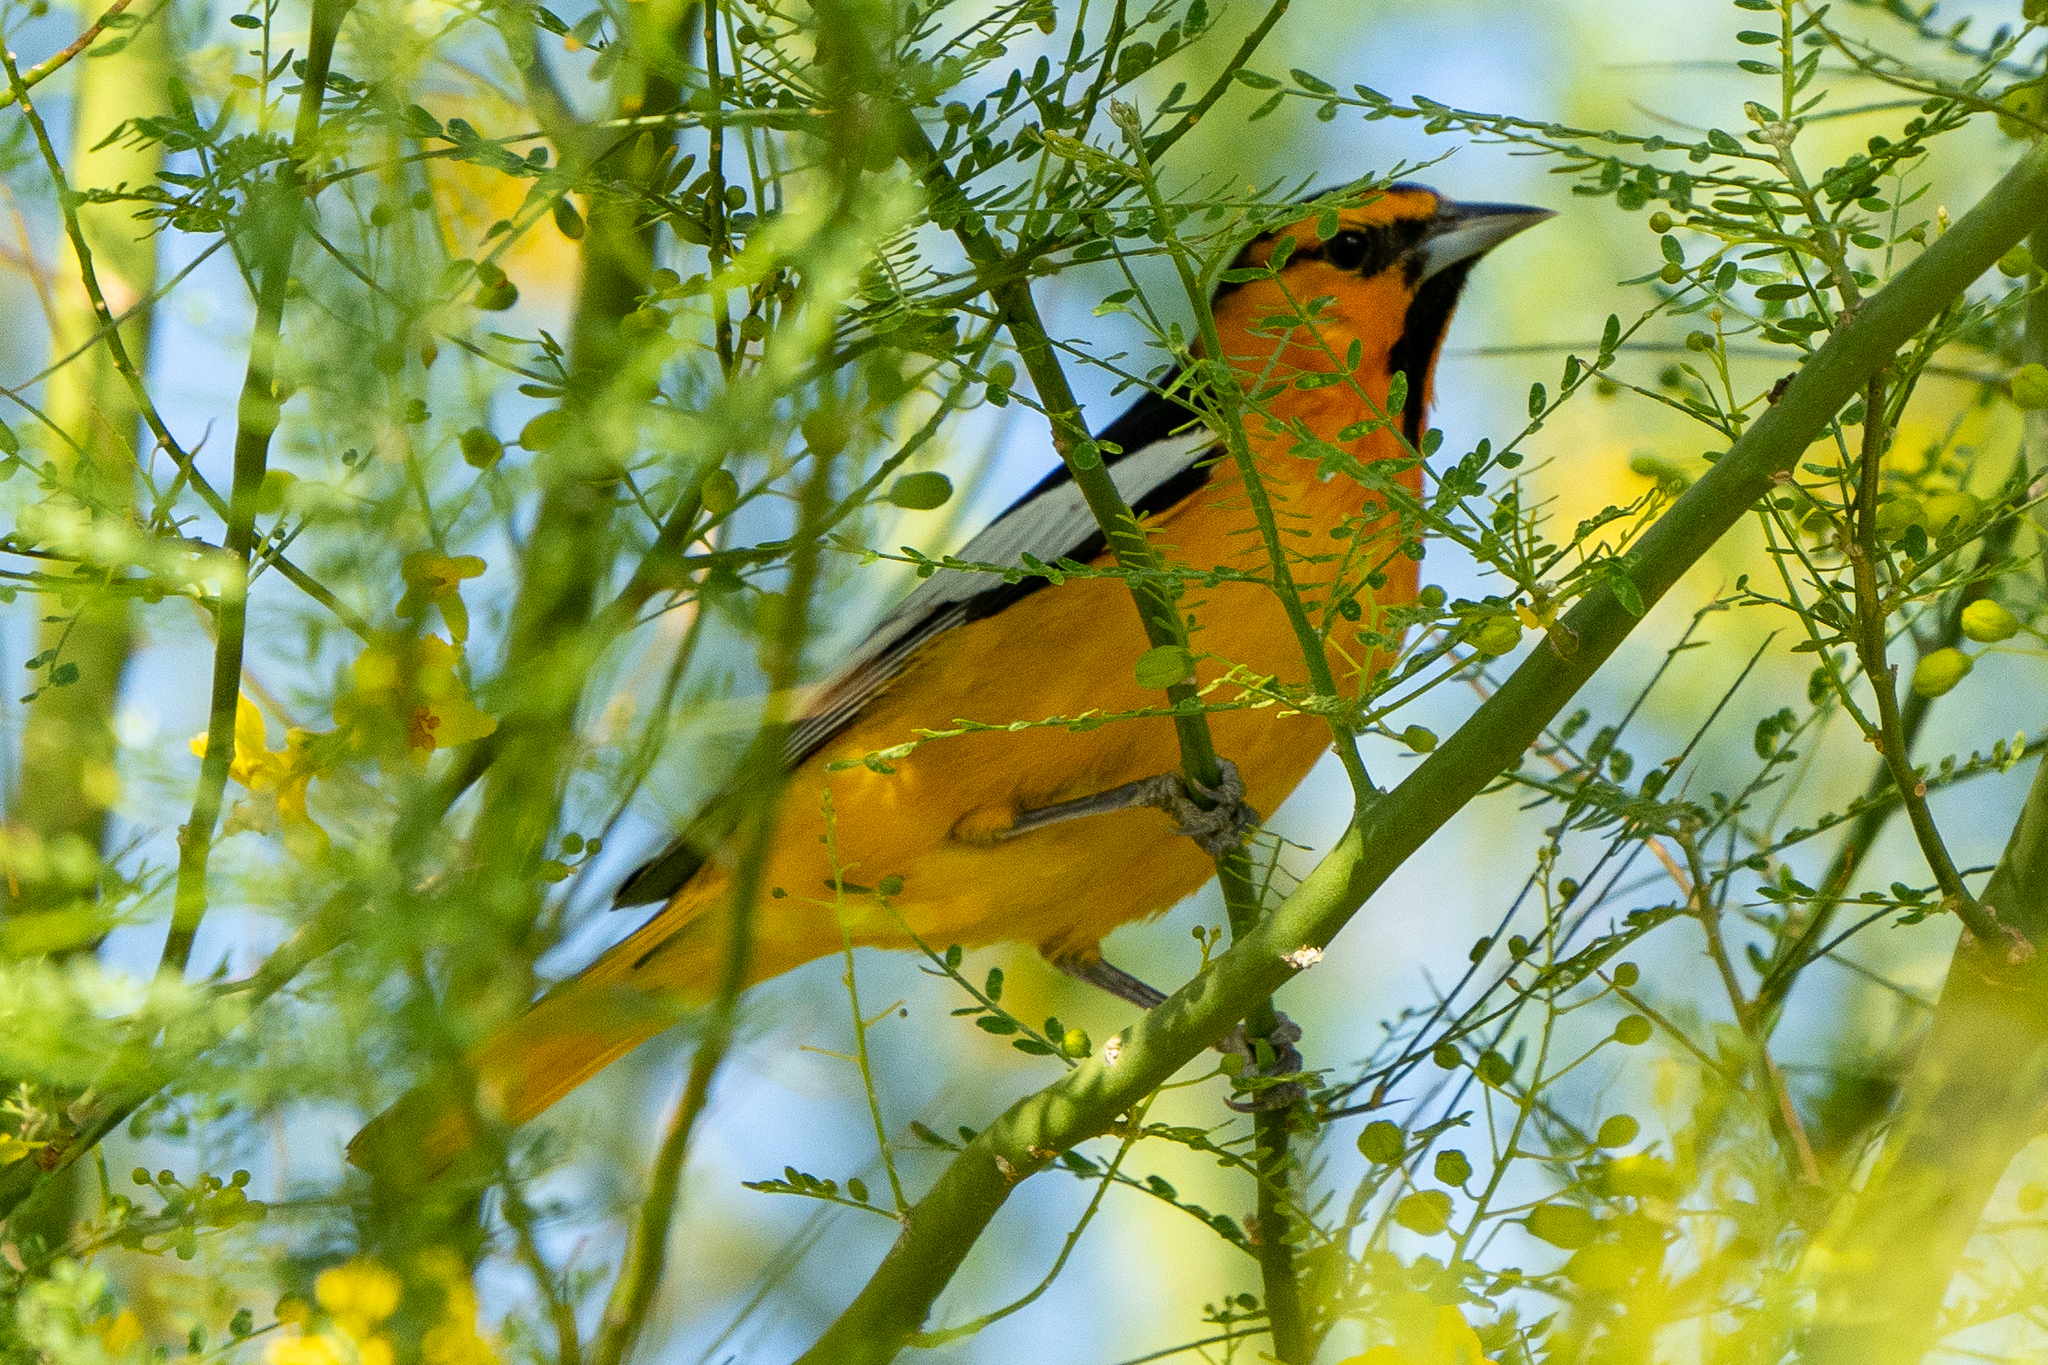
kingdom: Animalia
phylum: Chordata
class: Aves
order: Passeriformes
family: Icteridae
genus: Icterus
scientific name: Icterus bullockii
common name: Bullock's oriole
